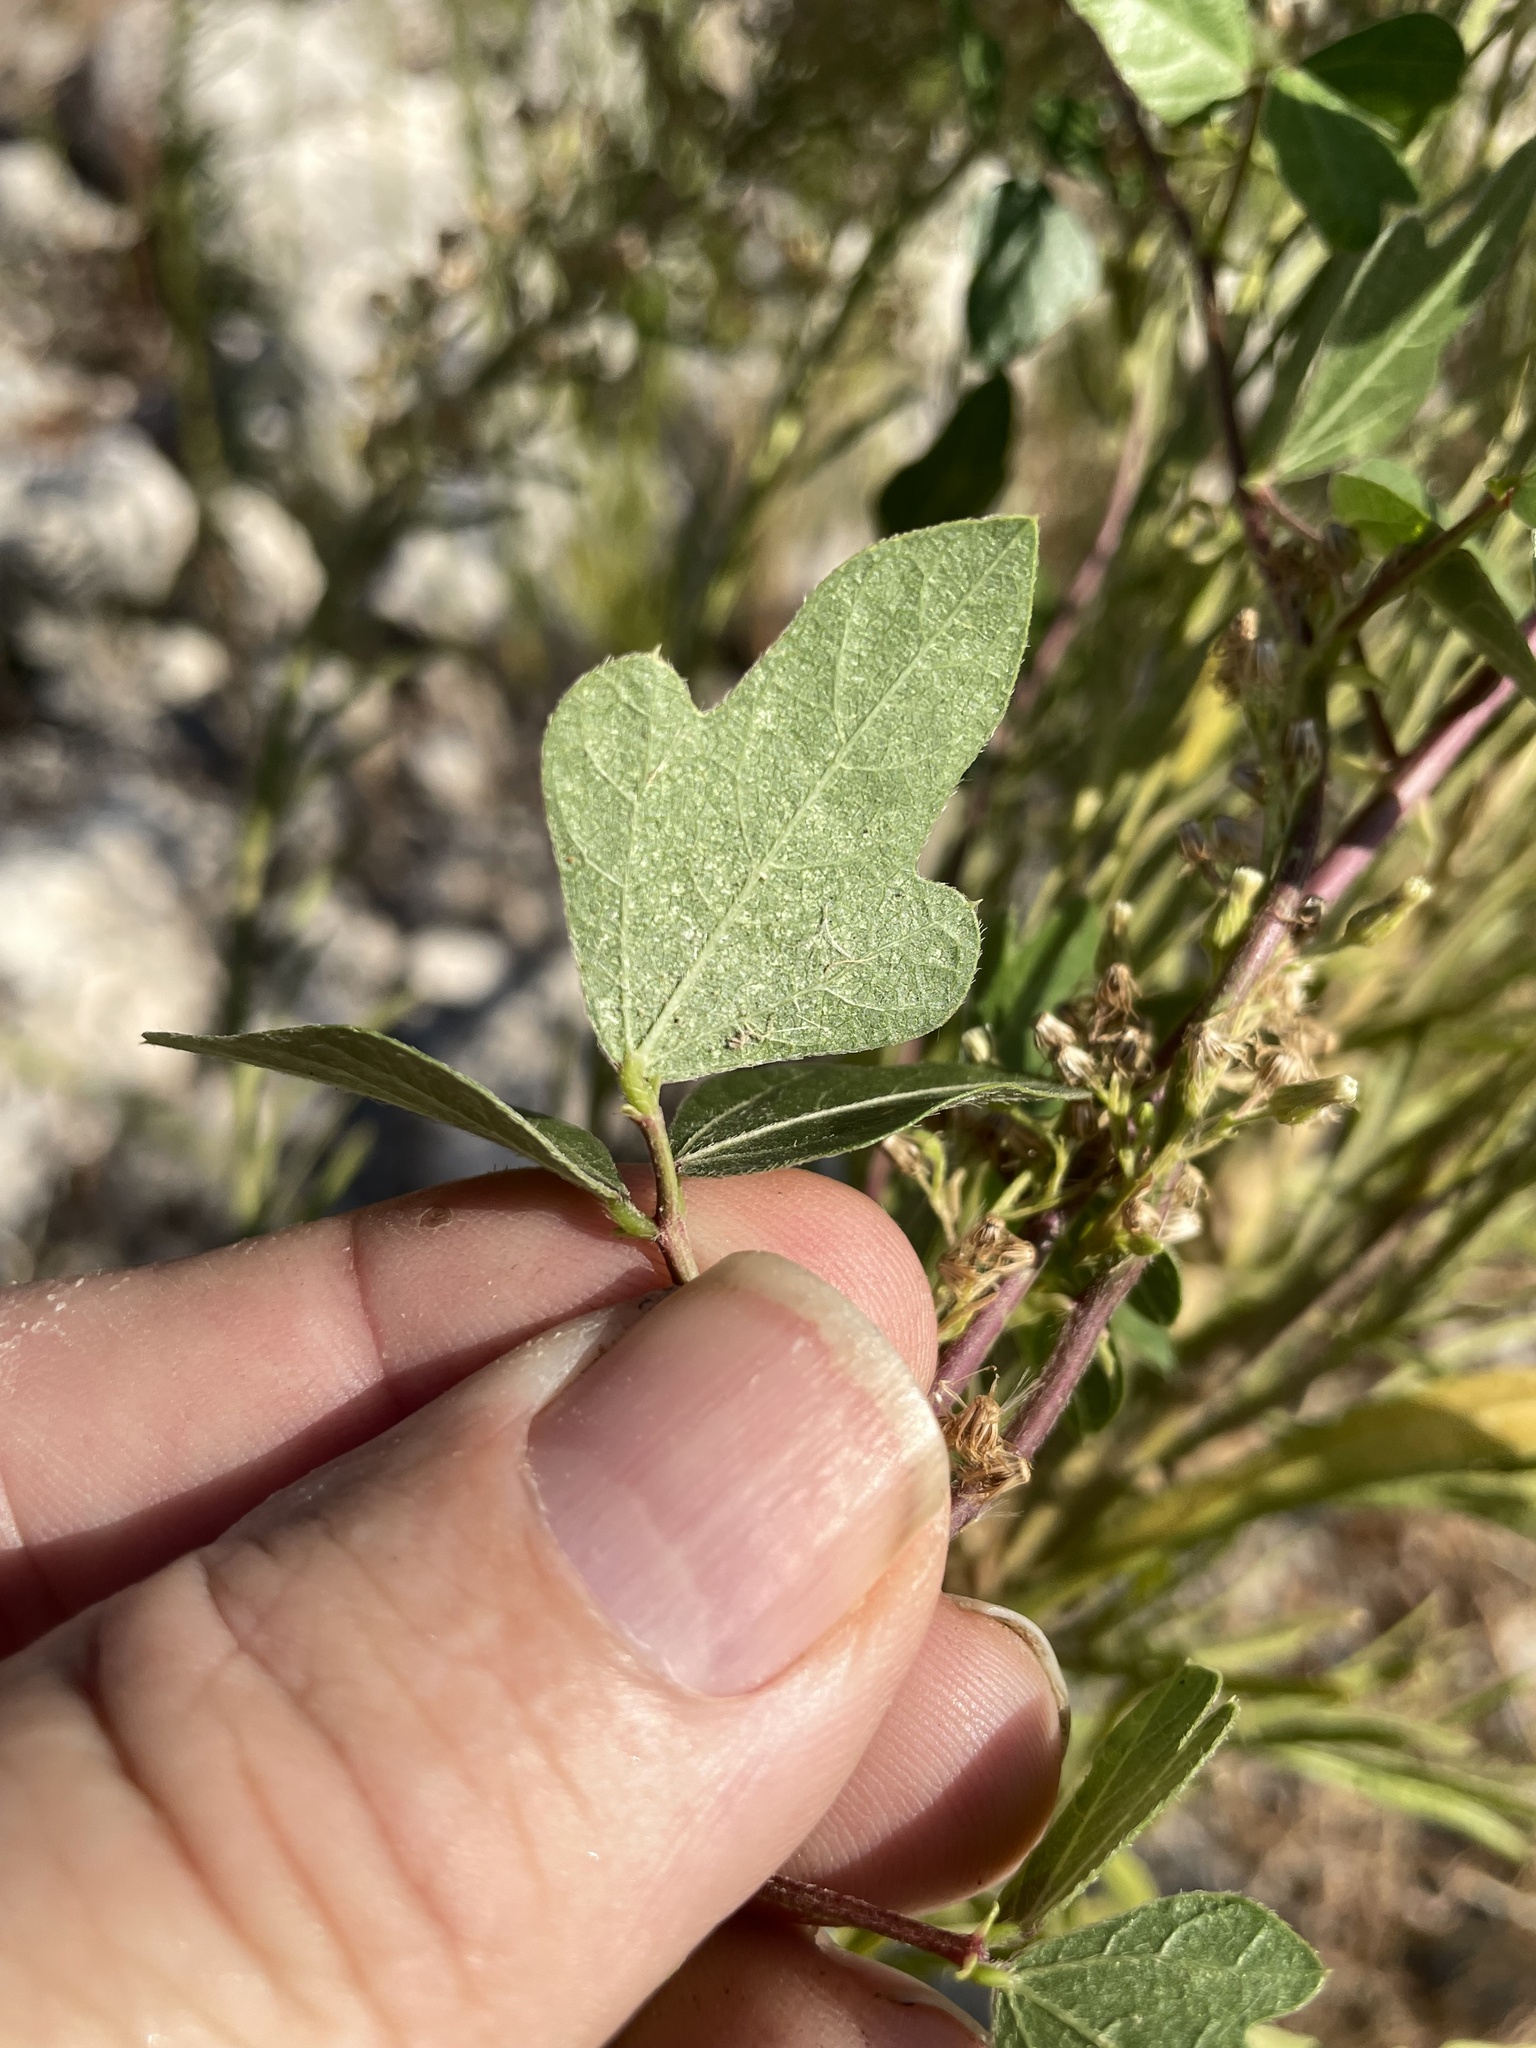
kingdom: Plantae
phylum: Tracheophyta
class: Magnoliopsida
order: Fabales
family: Fabaceae
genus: Strophostyles
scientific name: Strophostyles helvola
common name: Trailing wild bean
